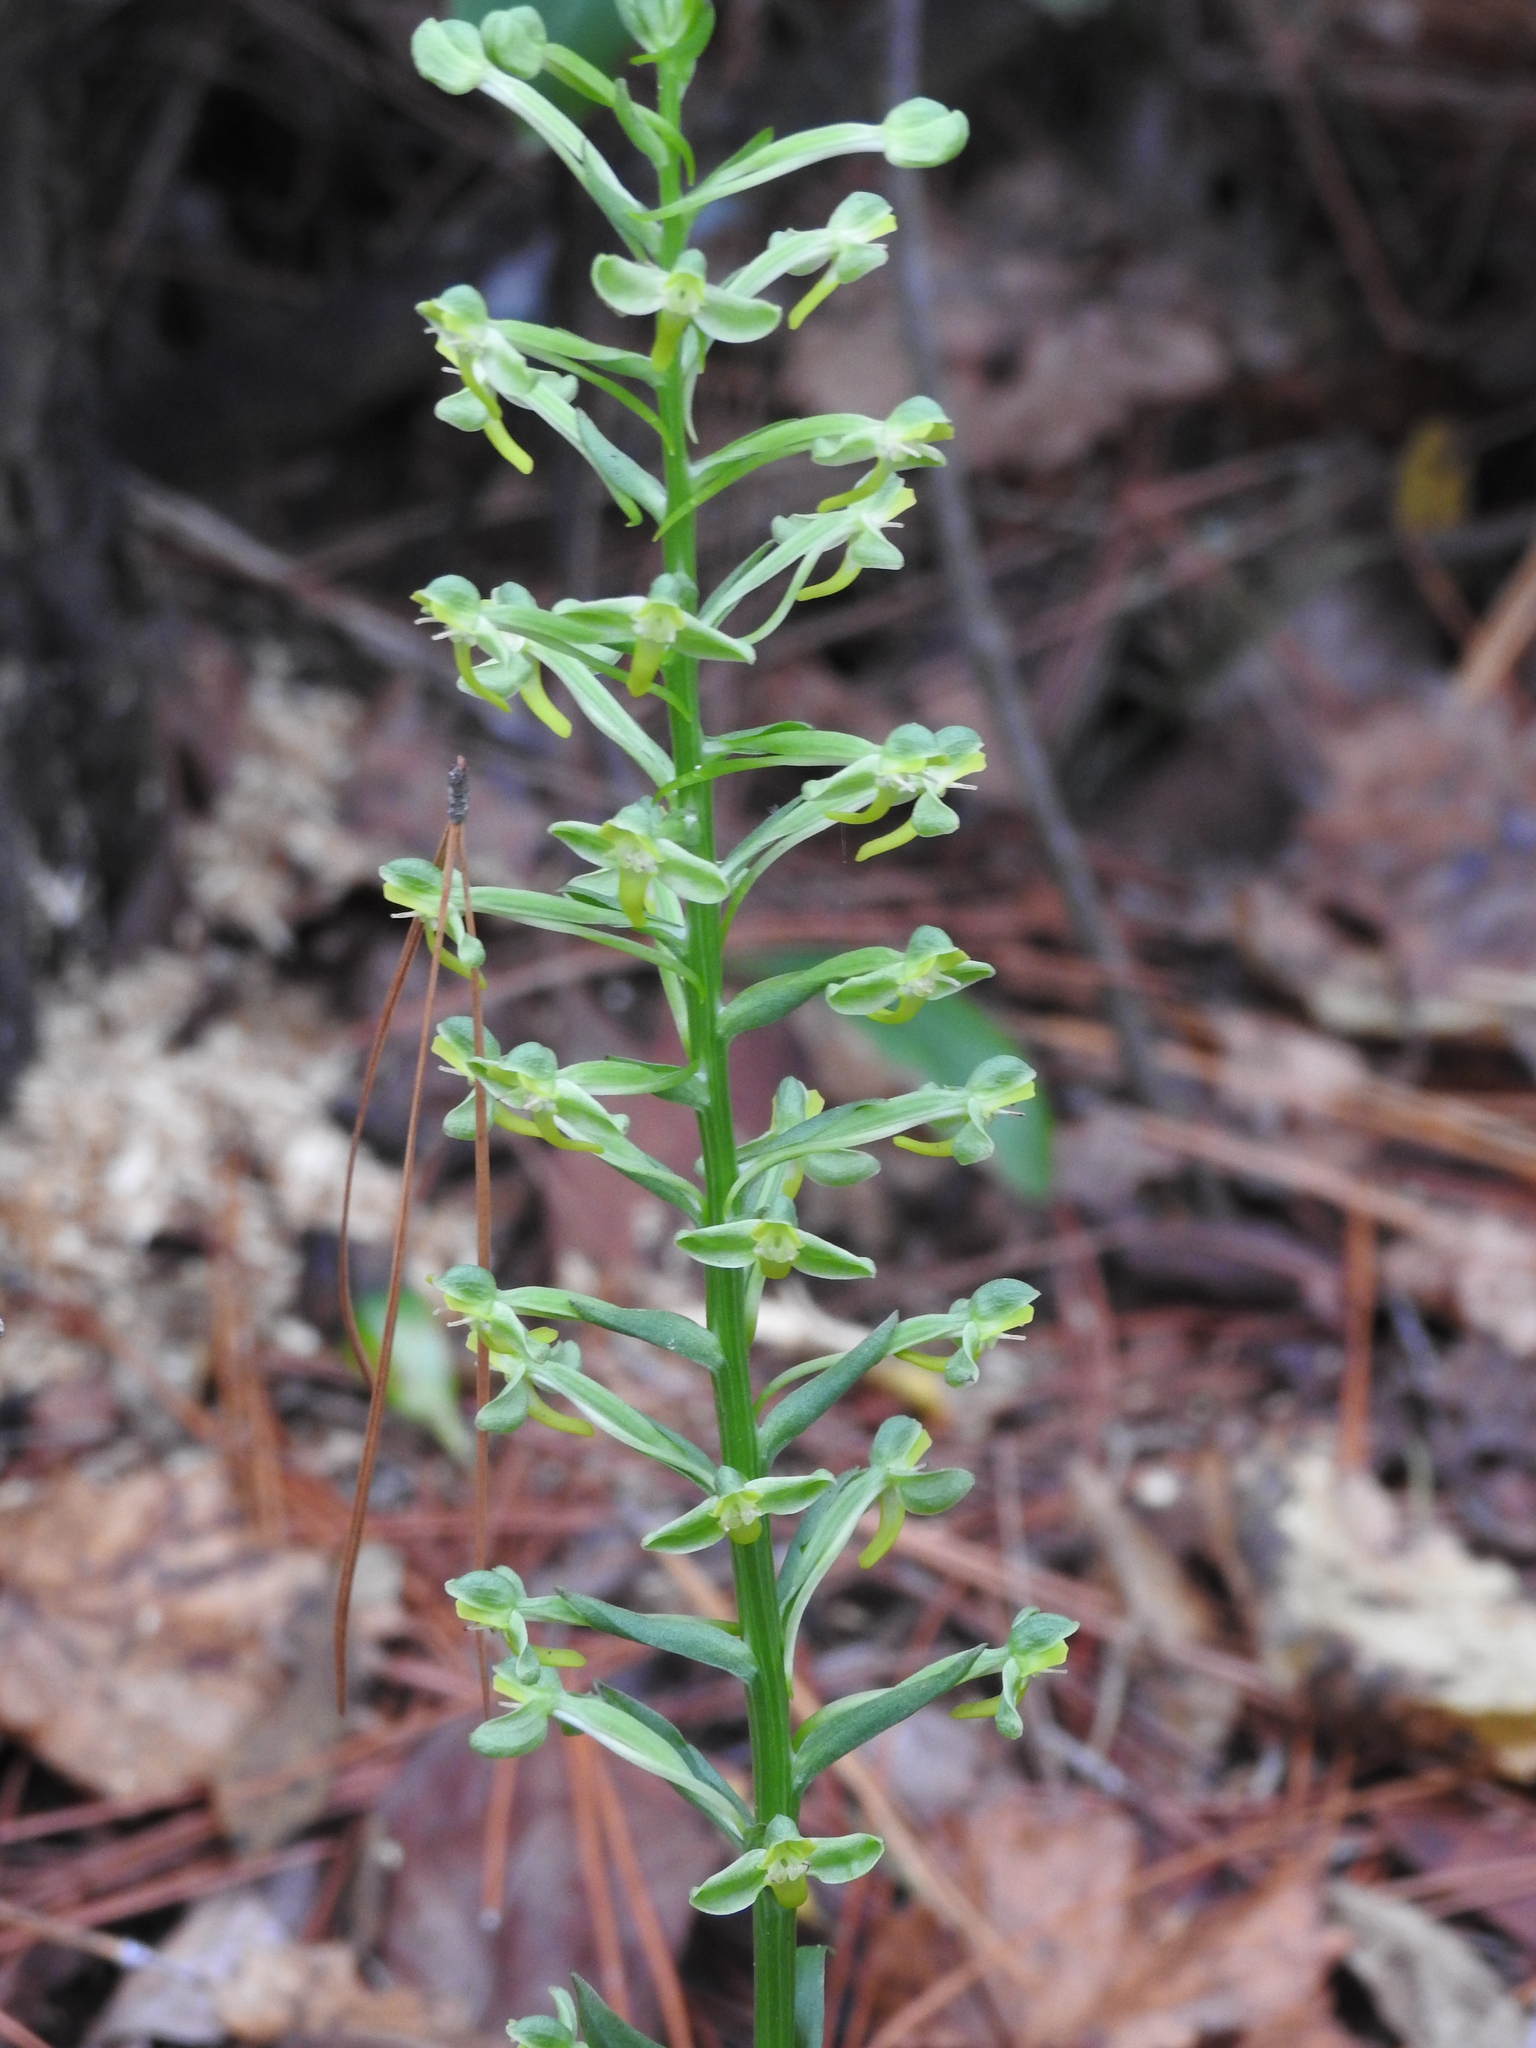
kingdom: Plantae
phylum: Tracheophyta
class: Liliopsida
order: Asparagales
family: Orchidaceae
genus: Habenaria
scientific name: Habenaria floribunda
